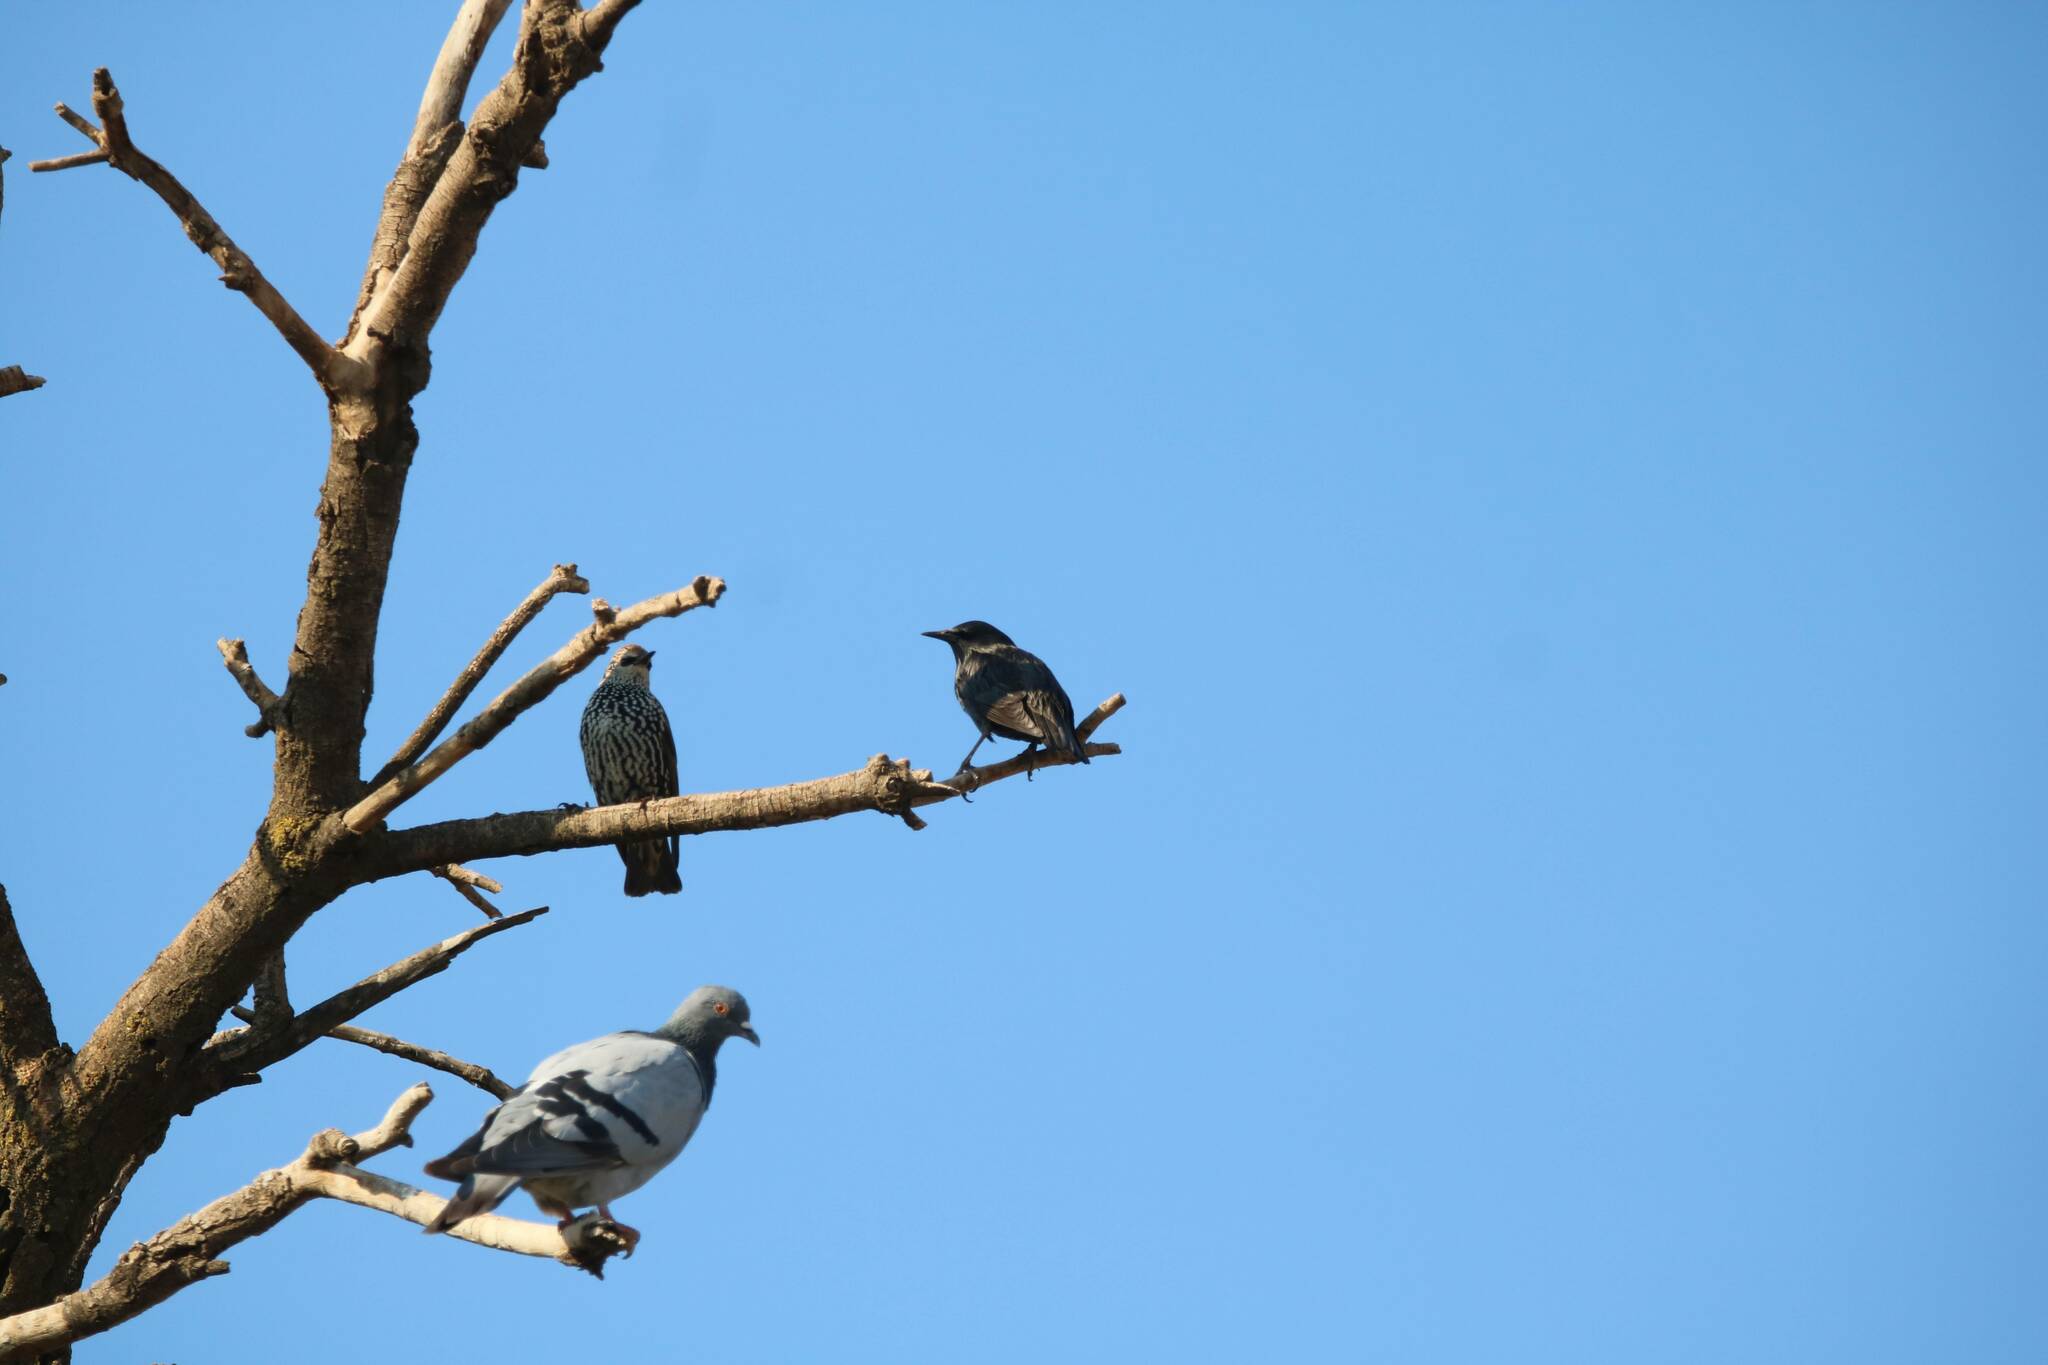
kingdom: Animalia
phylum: Chordata
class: Aves
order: Passeriformes
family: Sturnidae
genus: Sturnus
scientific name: Sturnus unicolor
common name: Spotless starling
